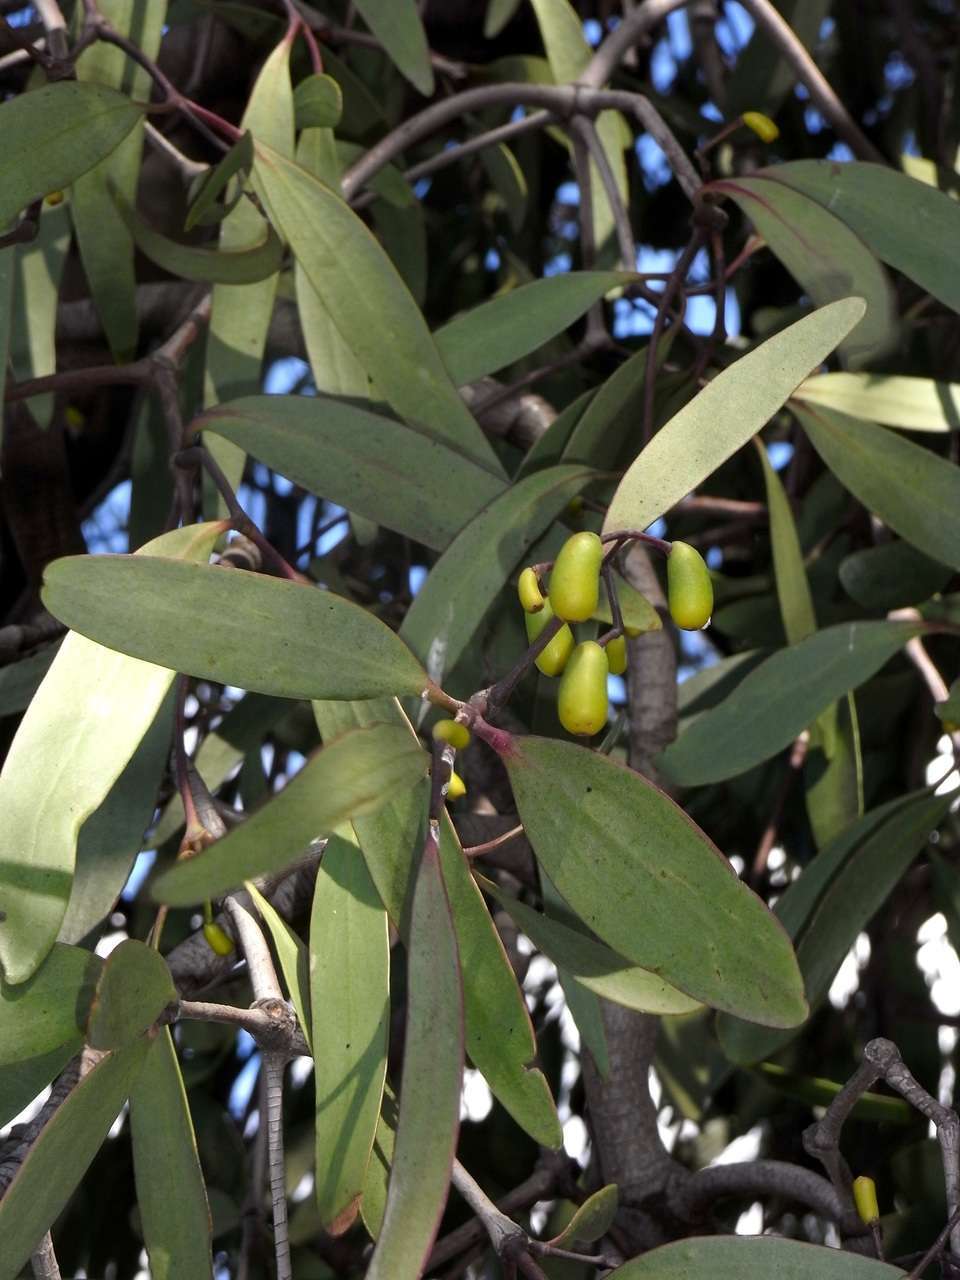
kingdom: Plantae
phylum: Tracheophyta
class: Magnoliopsida
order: Santalales
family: Loranthaceae
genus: Muellerina
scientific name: Muellerina eucalyptoides
